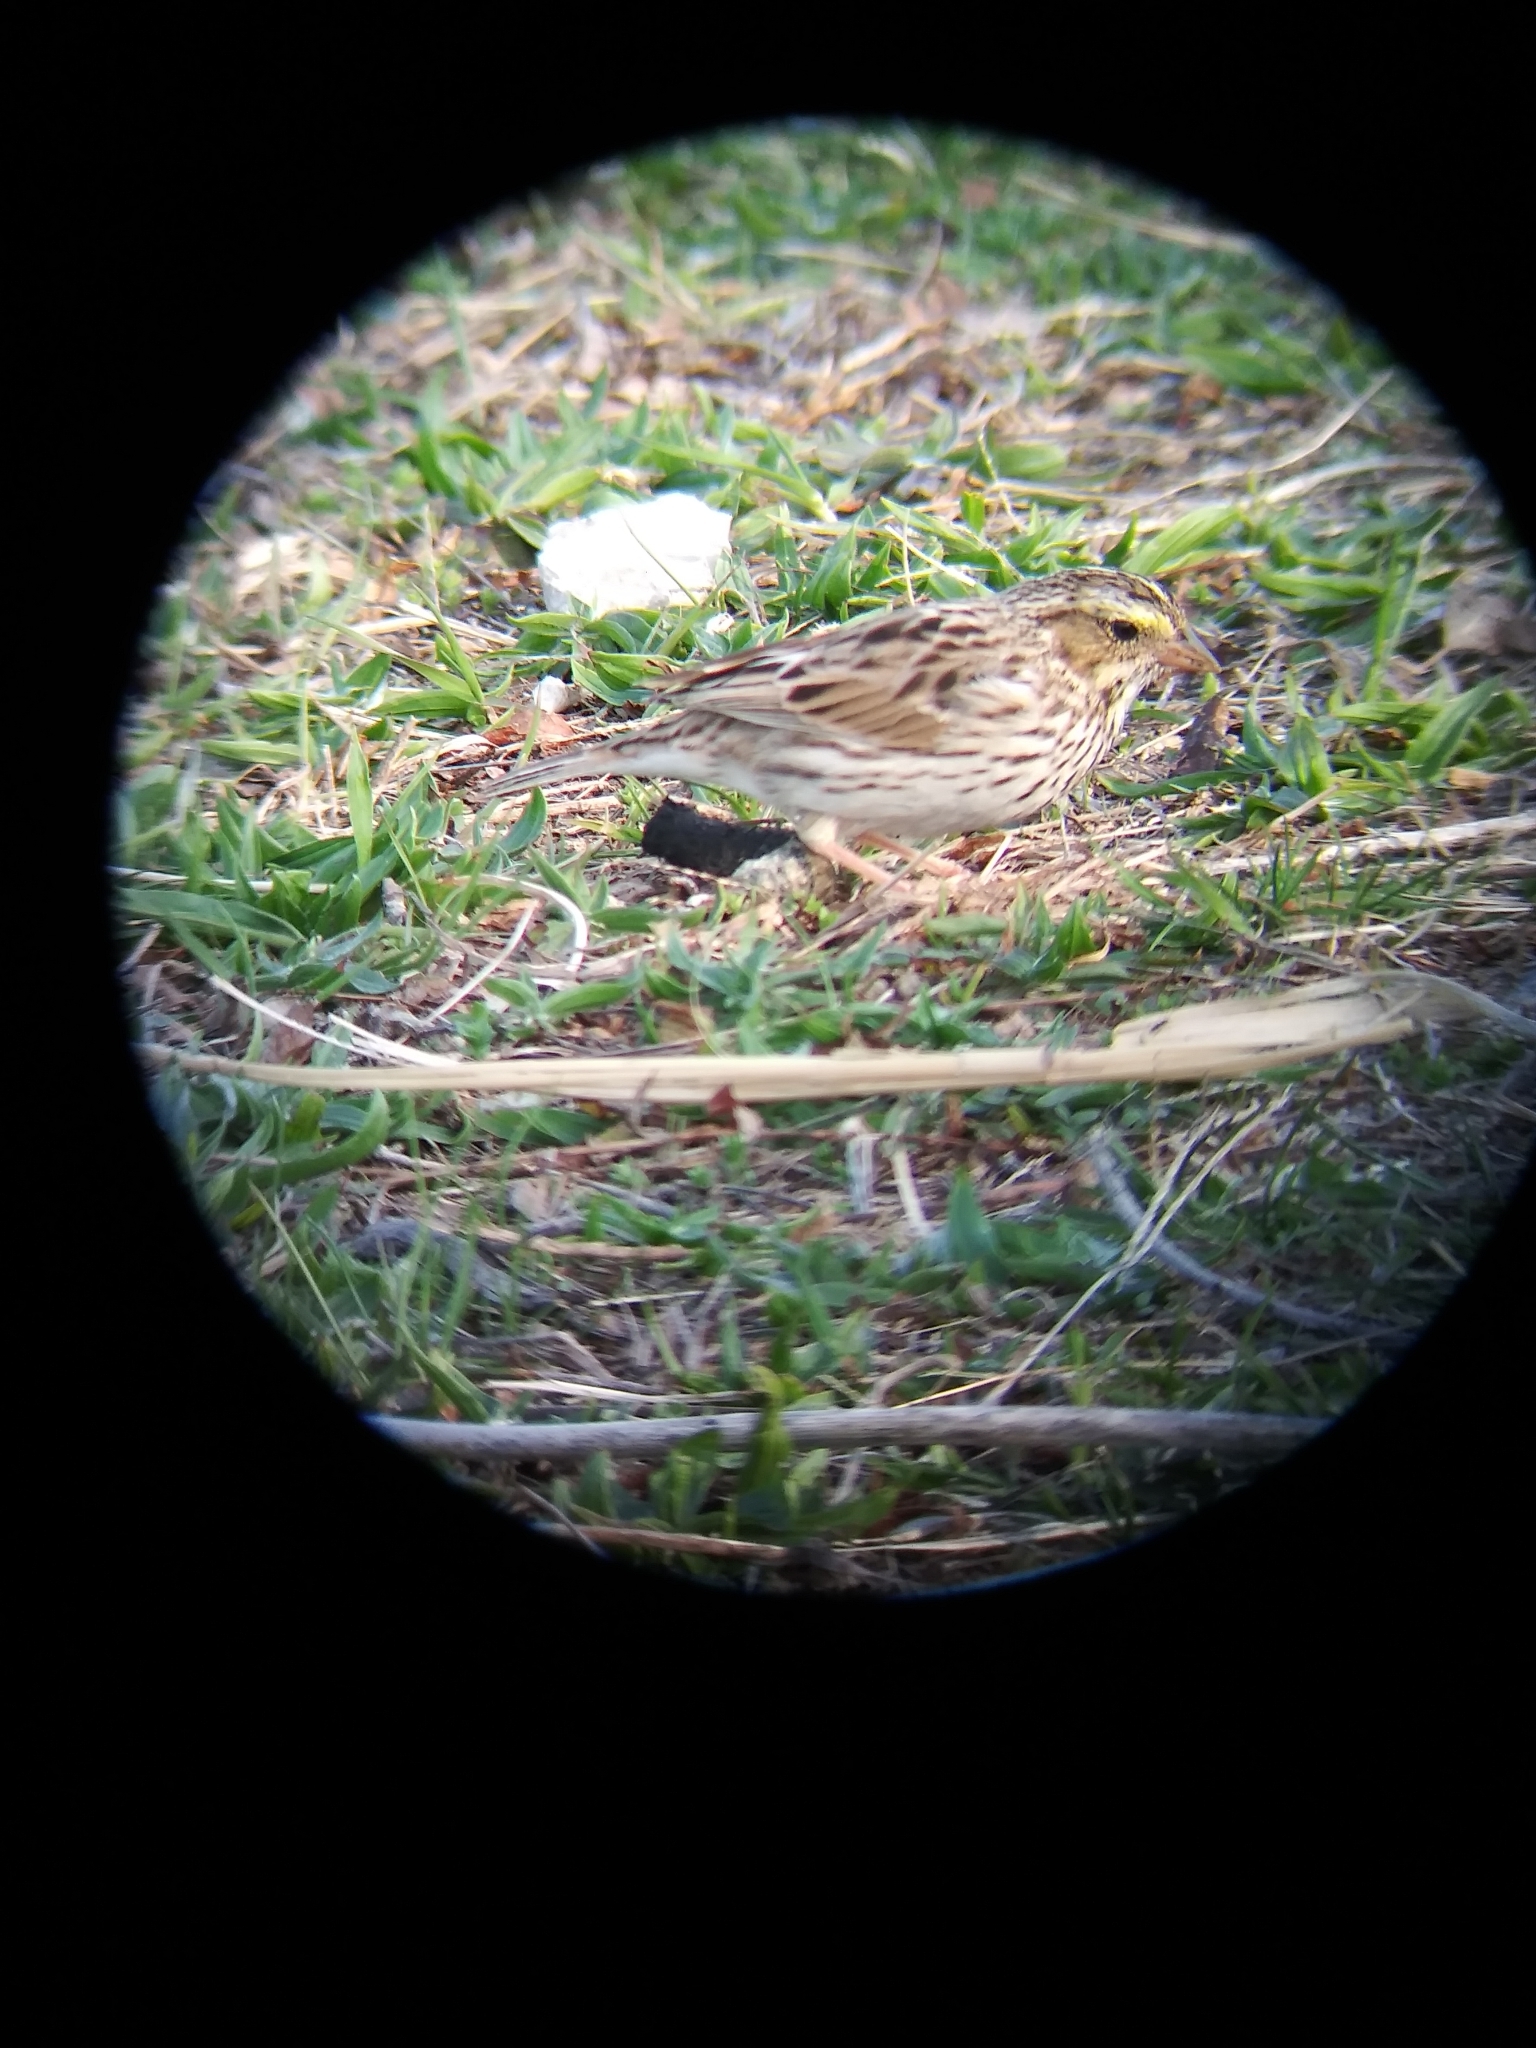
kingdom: Animalia
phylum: Chordata
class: Aves
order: Passeriformes
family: Passerellidae
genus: Passerculus
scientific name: Passerculus sandwichensis
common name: Savannah sparrow
